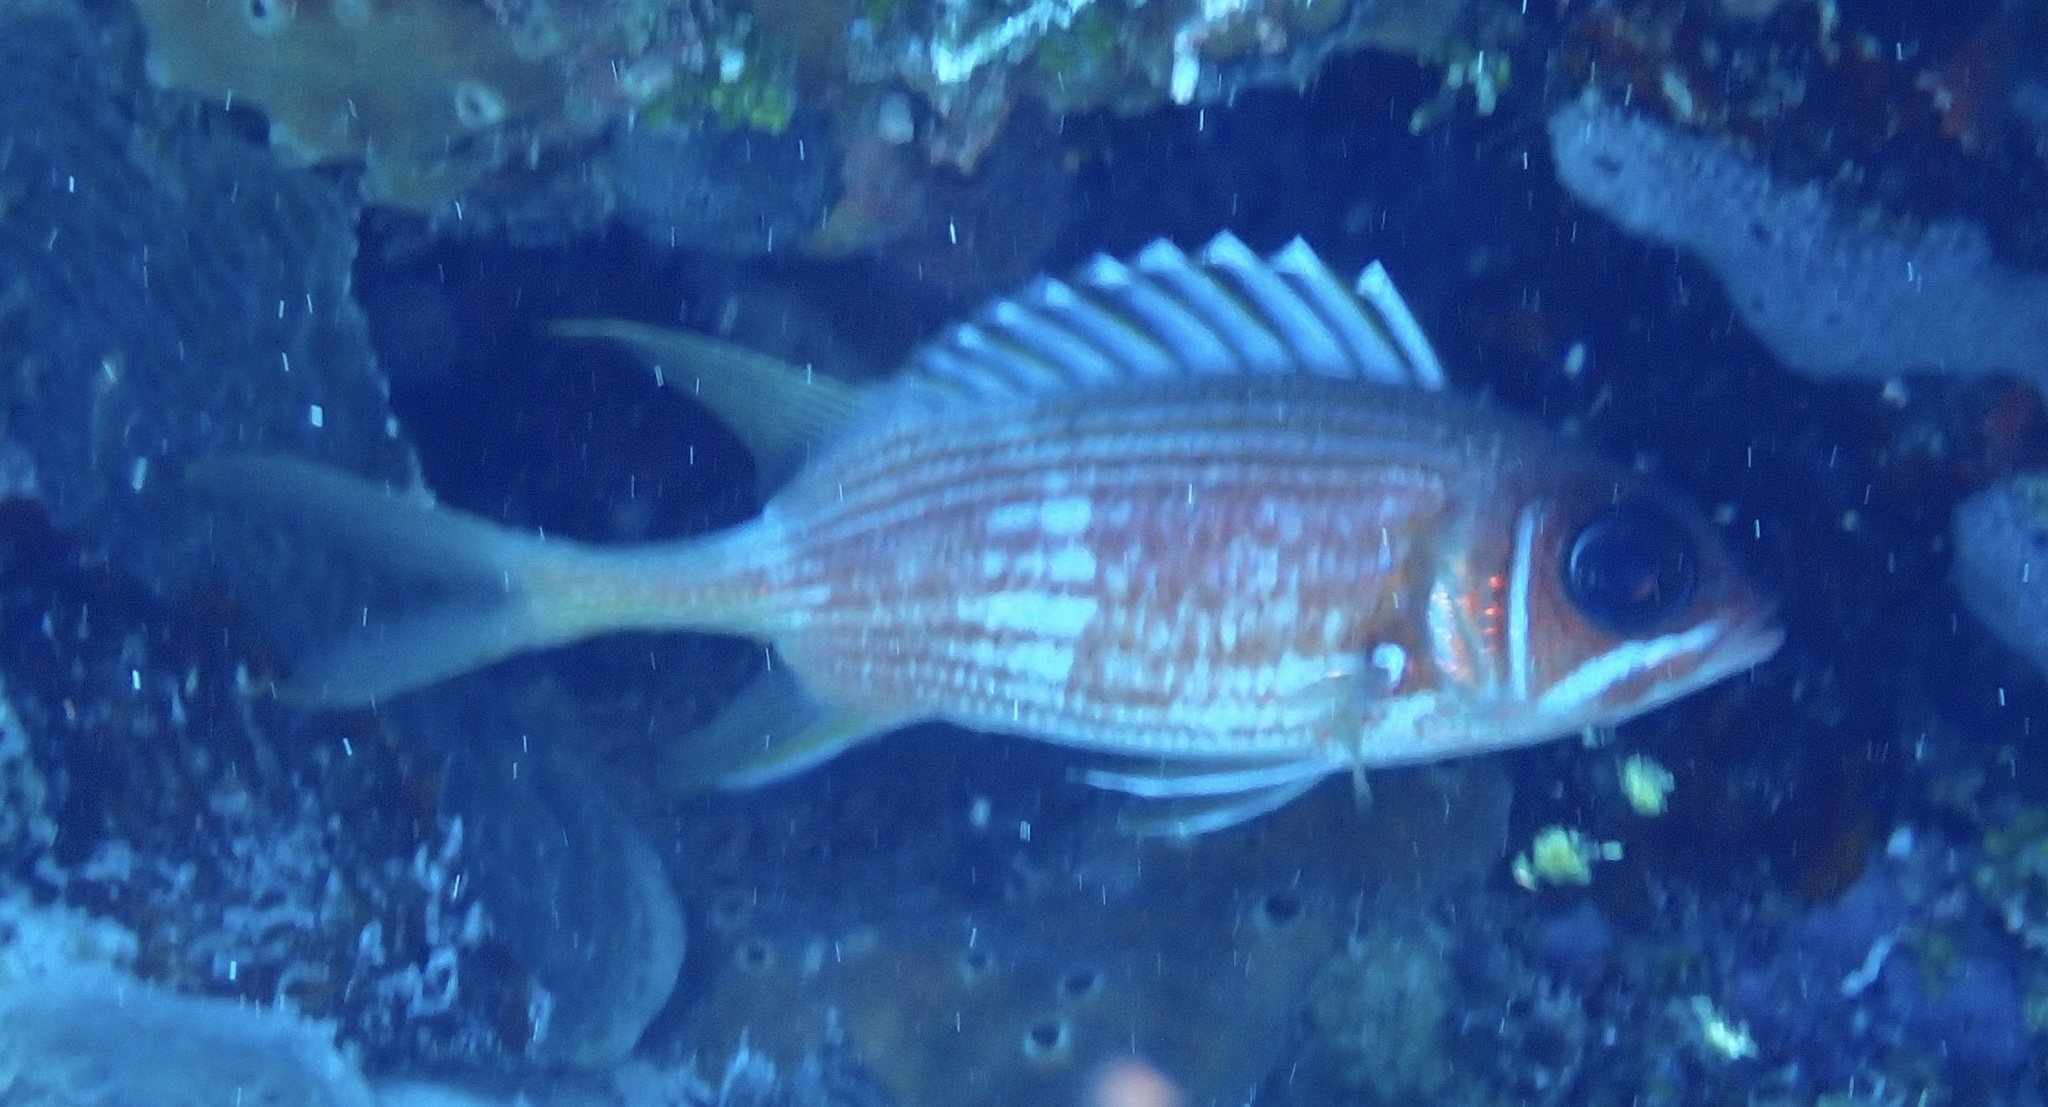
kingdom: Animalia
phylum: Chordata
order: Beryciformes
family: Holocentridae
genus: Holocentrus
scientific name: Holocentrus rufus
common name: Longspine squirrelfish
